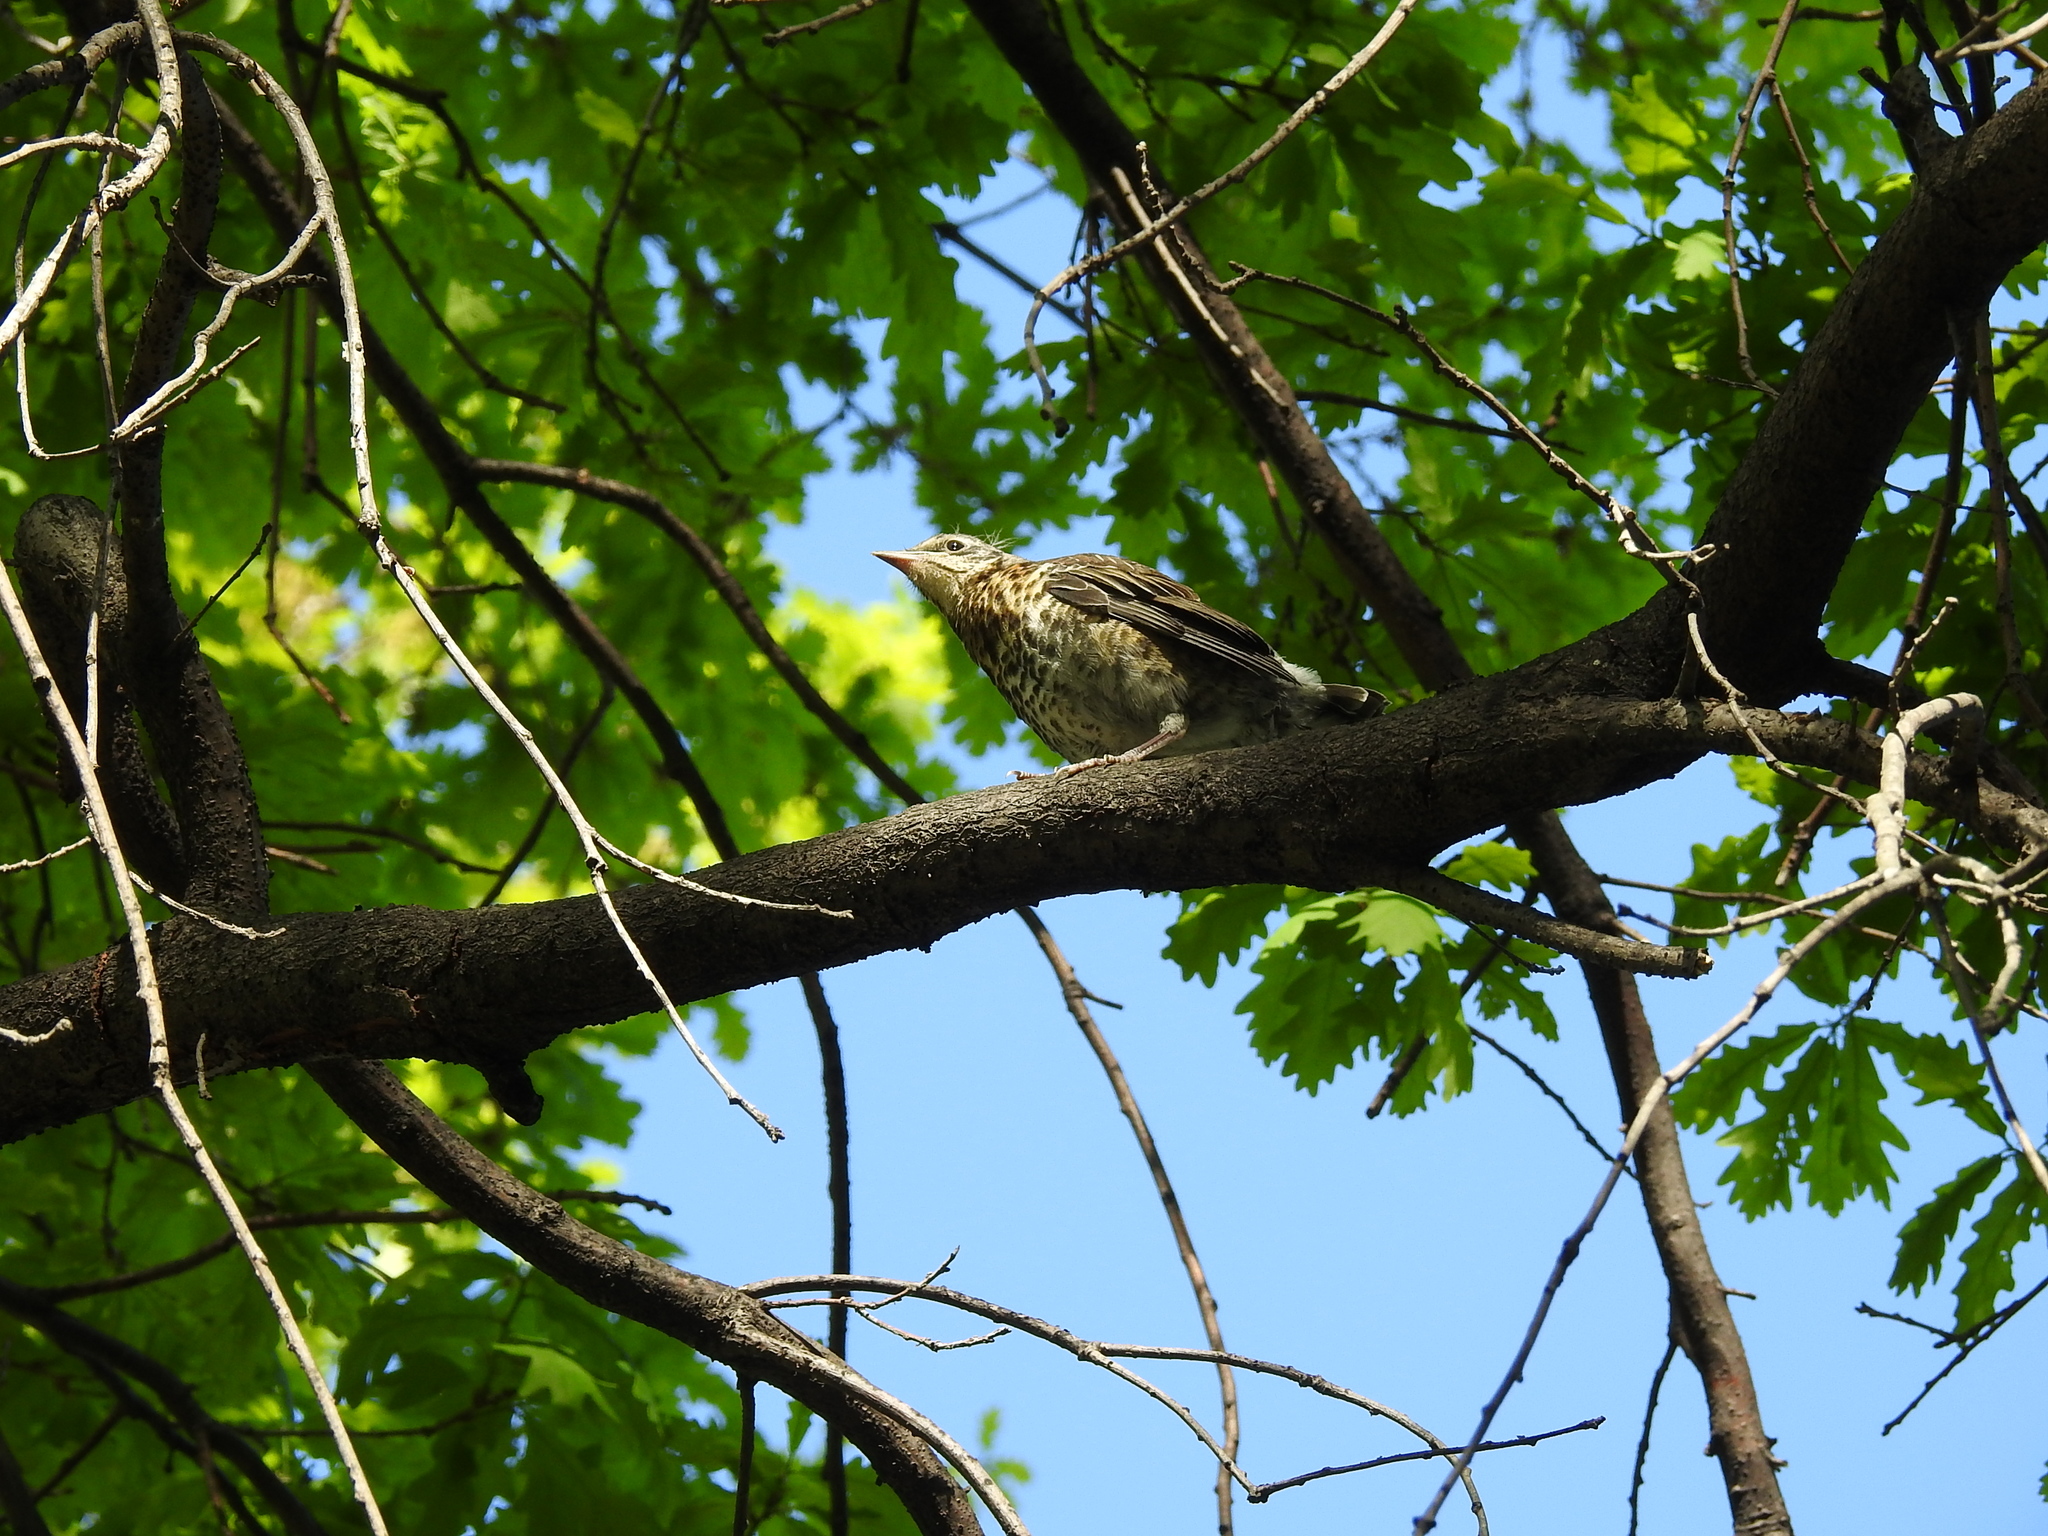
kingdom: Animalia
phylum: Chordata
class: Aves
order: Passeriformes
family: Turdidae
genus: Turdus
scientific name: Turdus pilaris
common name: Fieldfare
